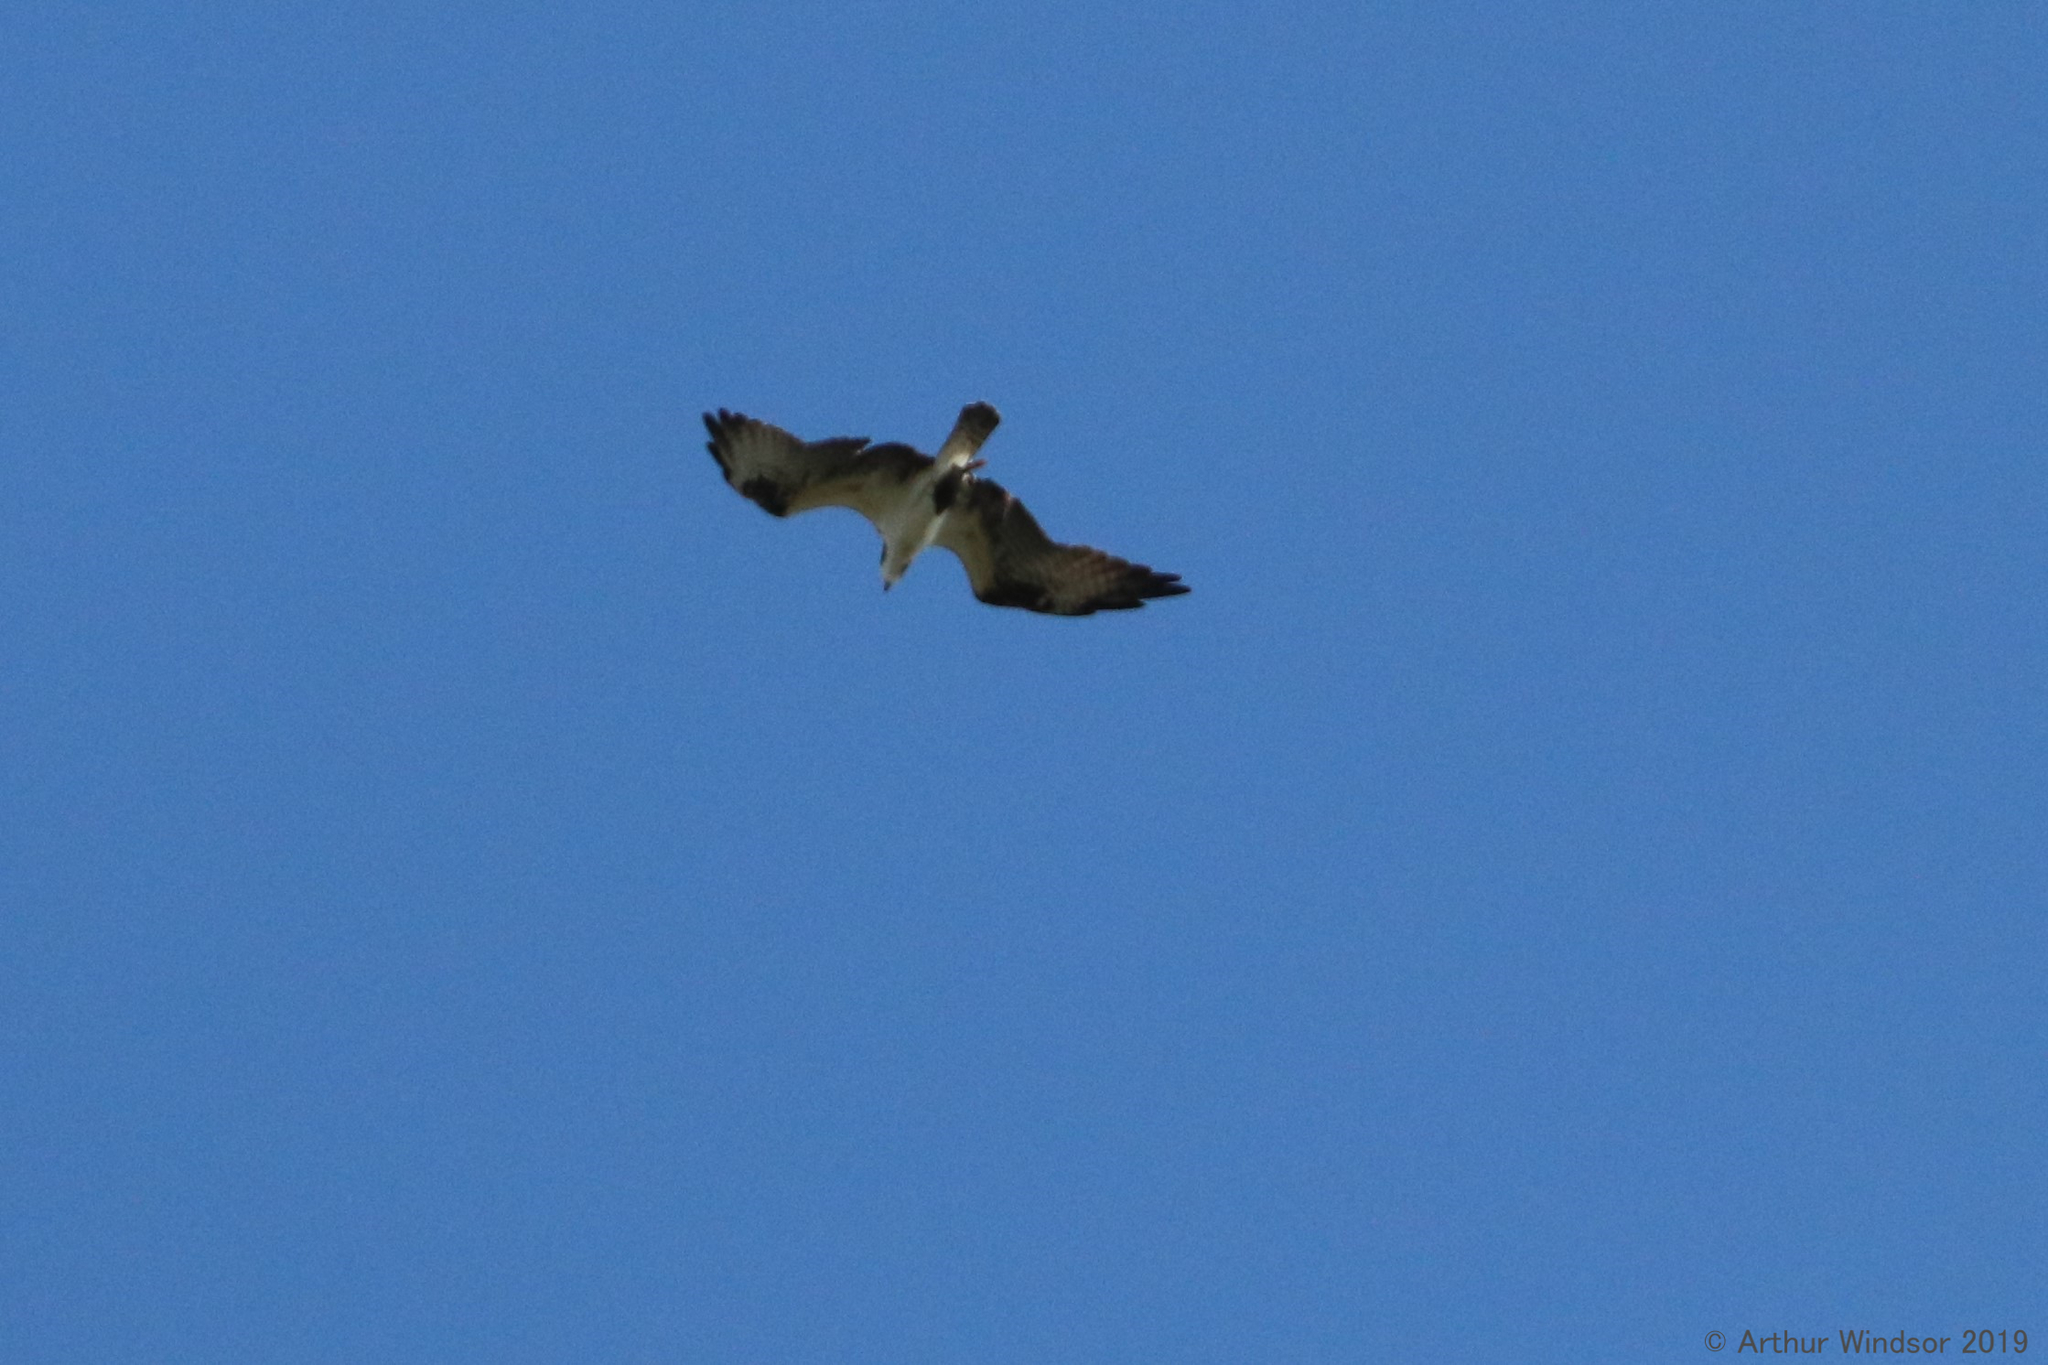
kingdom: Animalia
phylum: Chordata
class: Aves
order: Accipitriformes
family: Pandionidae
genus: Pandion
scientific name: Pandion haliaetus
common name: Osprey
